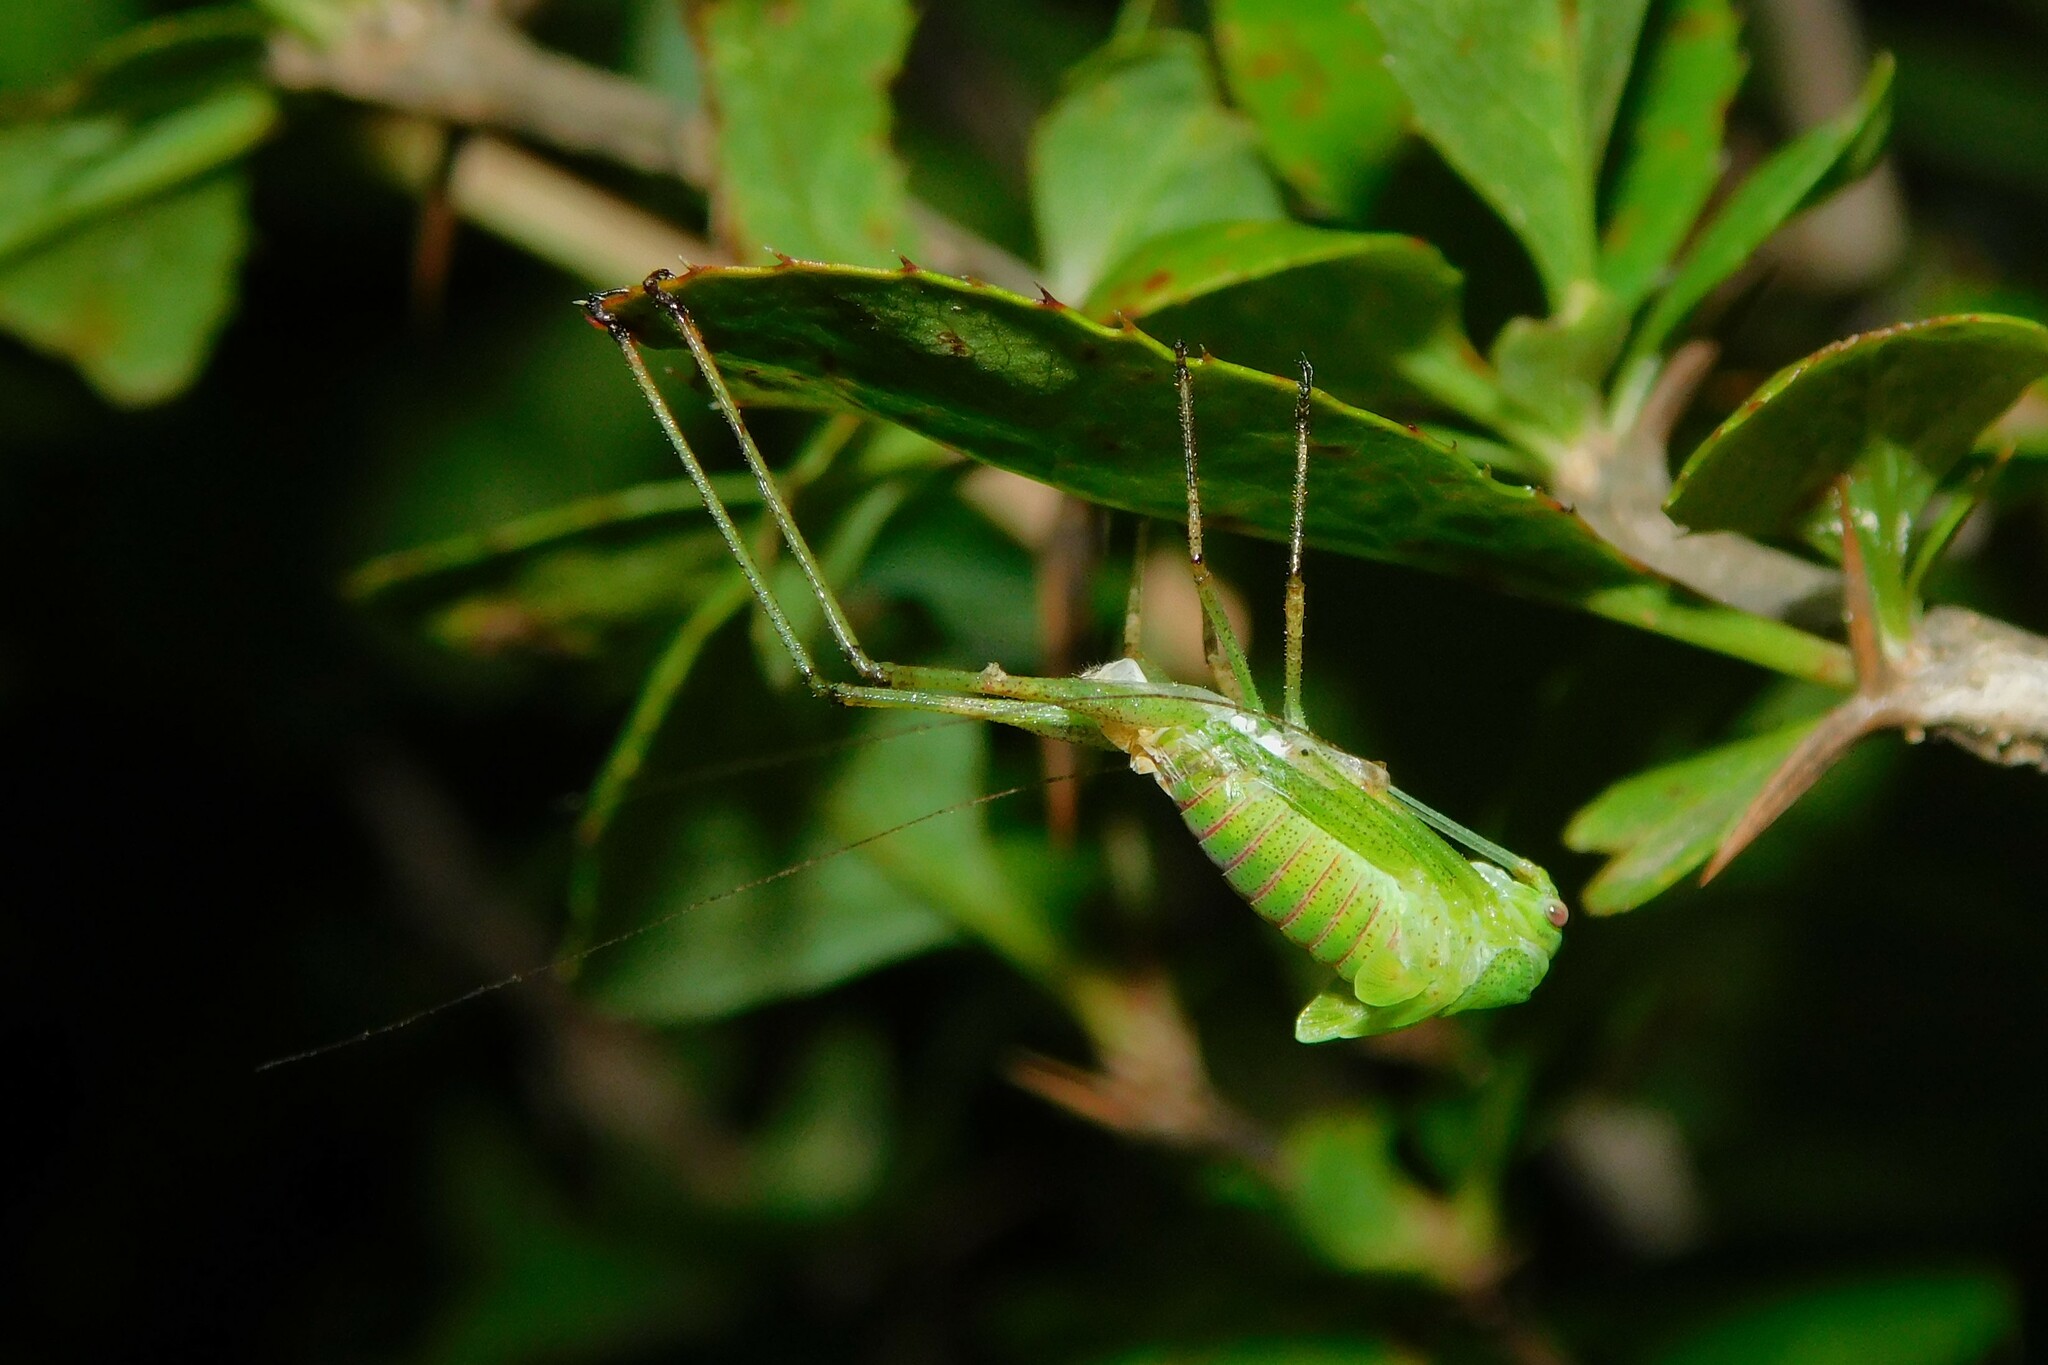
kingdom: Animalia
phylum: Arthropoda
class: Insecta
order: Orthoptera
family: Tettigoniidae
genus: Phaneroptera
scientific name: Phaneroptera
